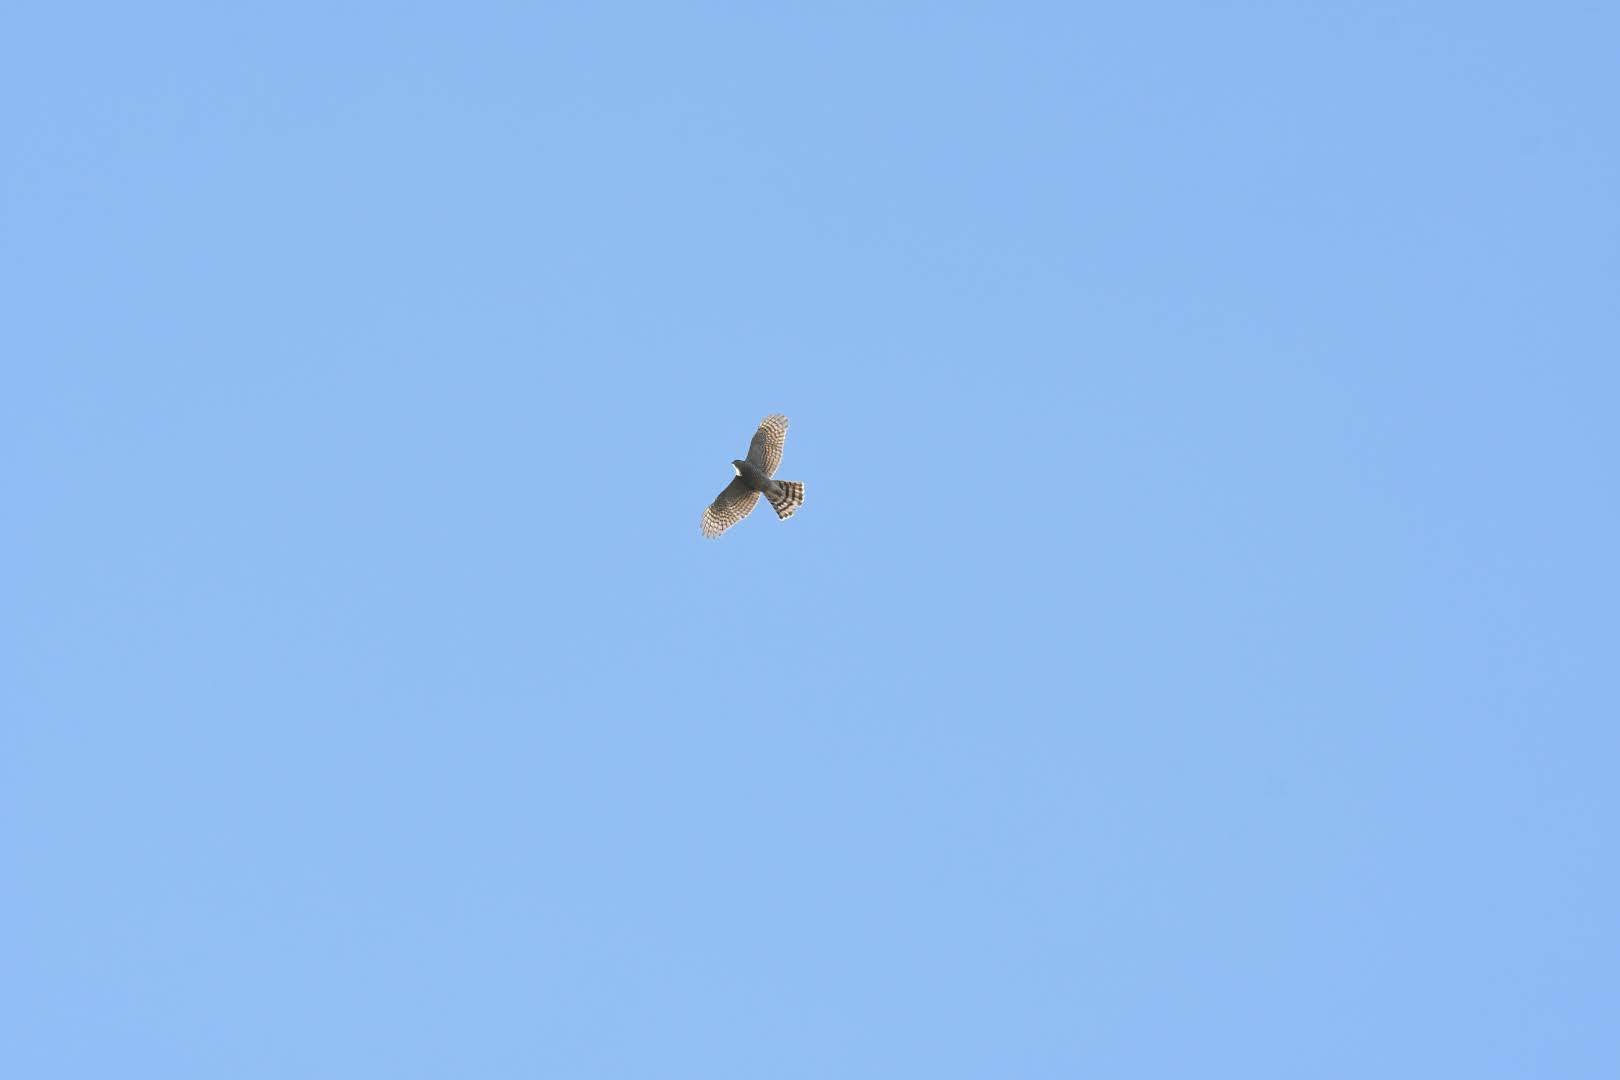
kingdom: Animalia
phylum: Chordata
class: Aves
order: Accipitriformes
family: Accipitridae
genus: Accipiter
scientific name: Accipiter nisus
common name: Eurasian sparrowhawk
